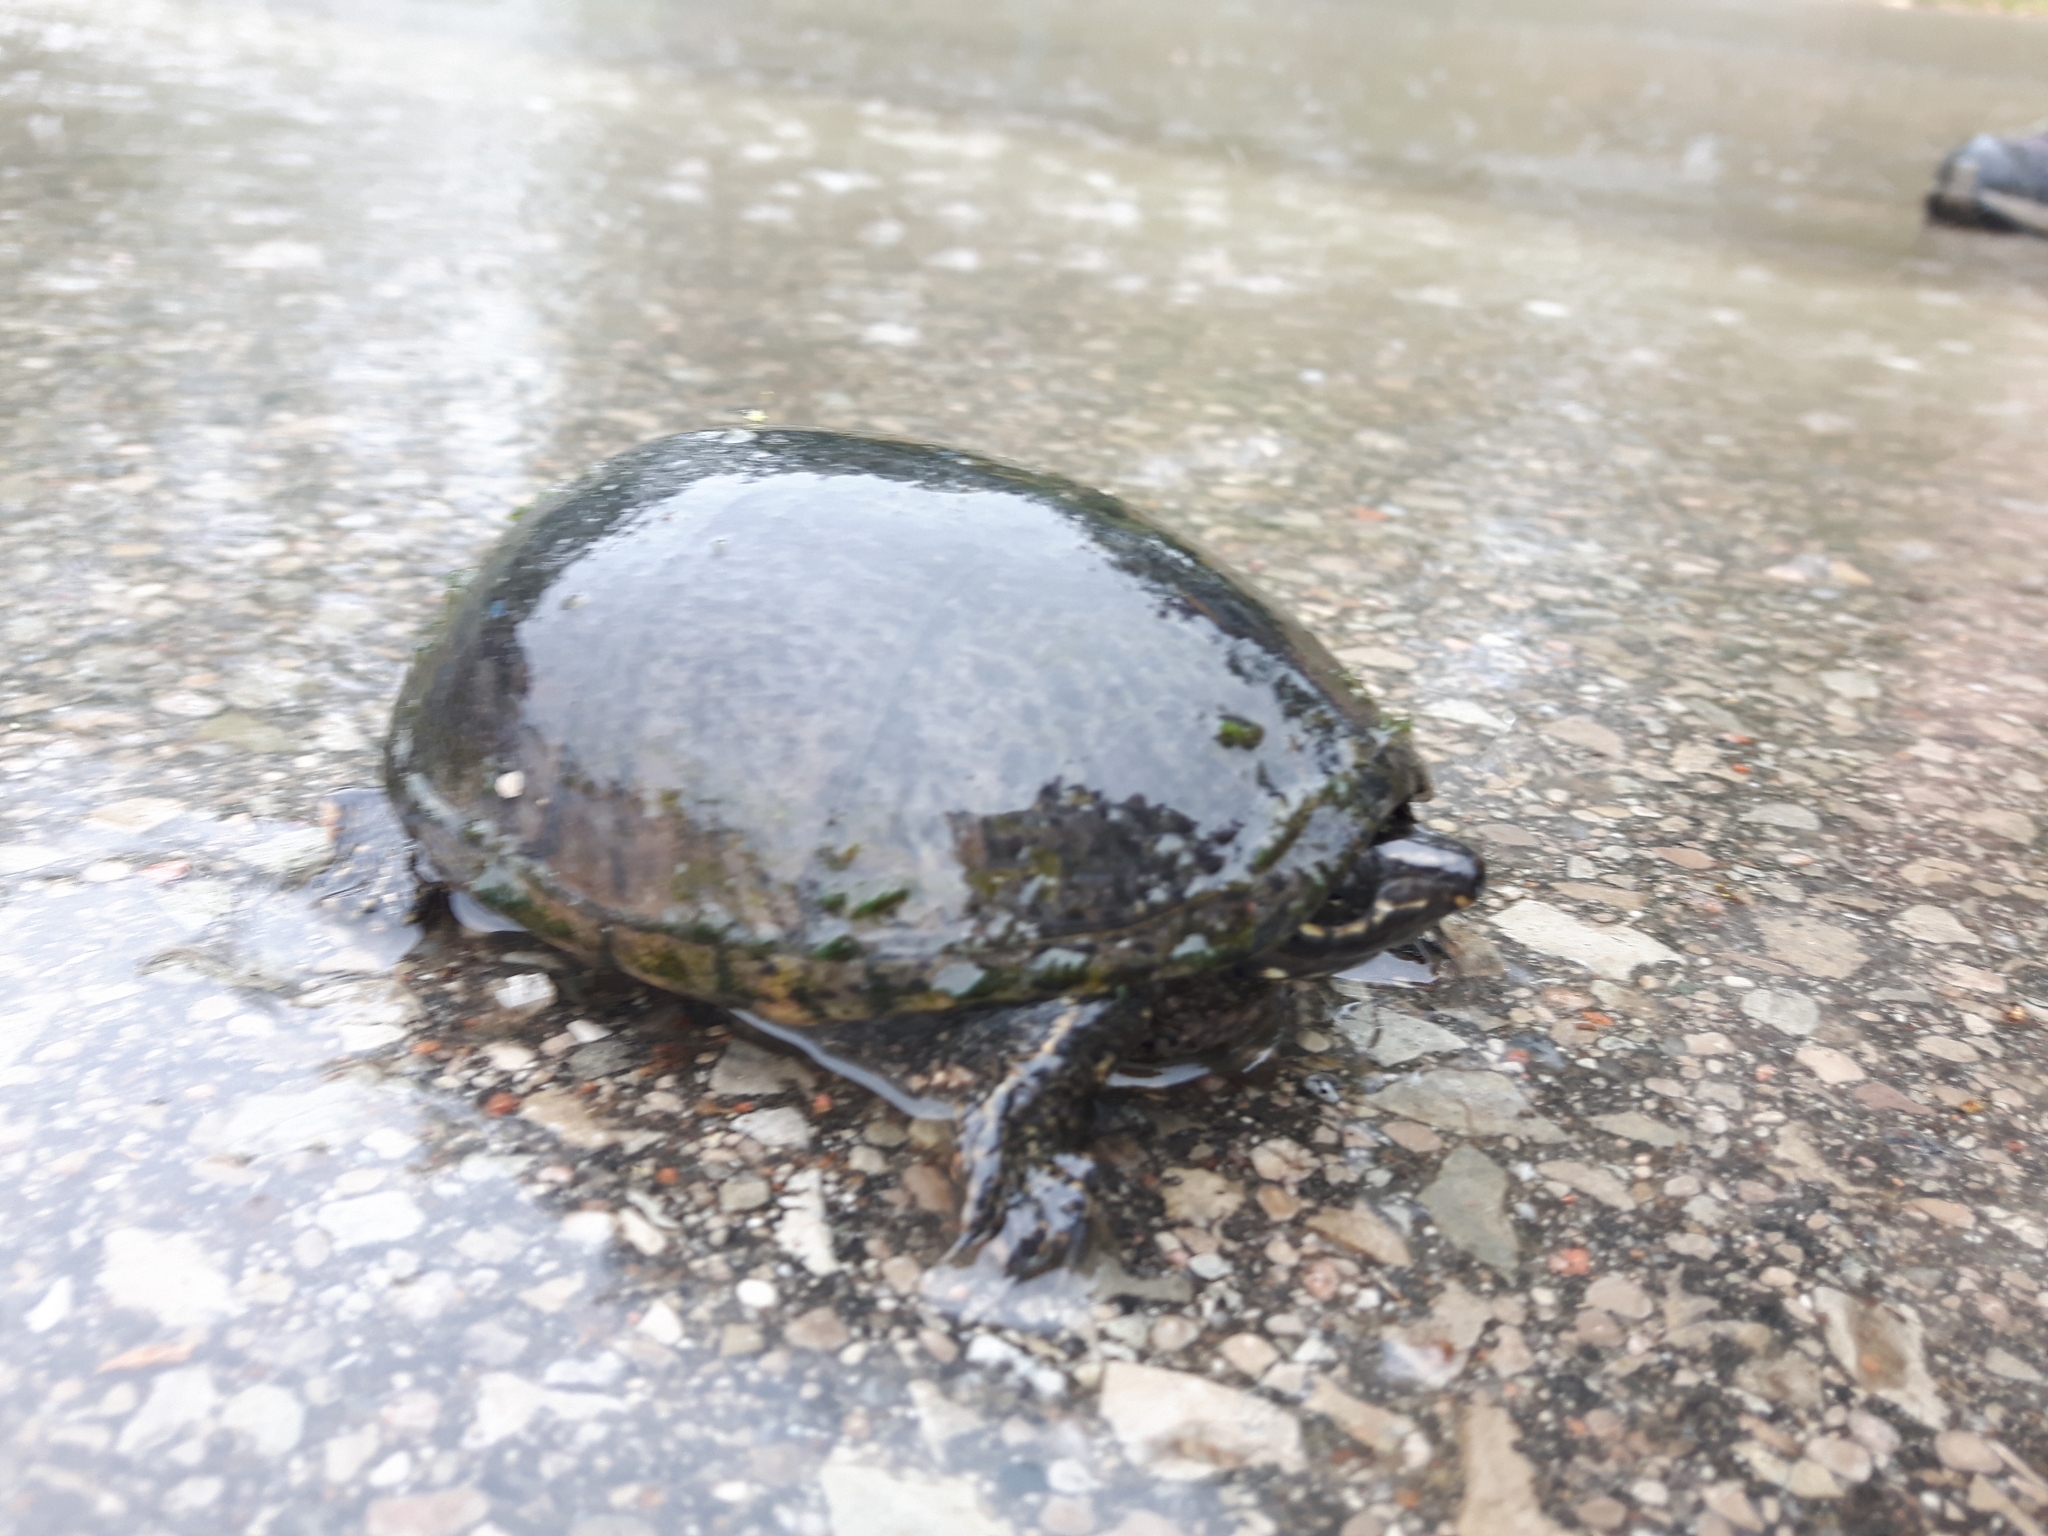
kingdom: Animalia
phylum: Chordata
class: Testudines
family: Kinosternidae
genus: Sternotherus
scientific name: Sternotherus odoratus
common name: Common musk turtle
